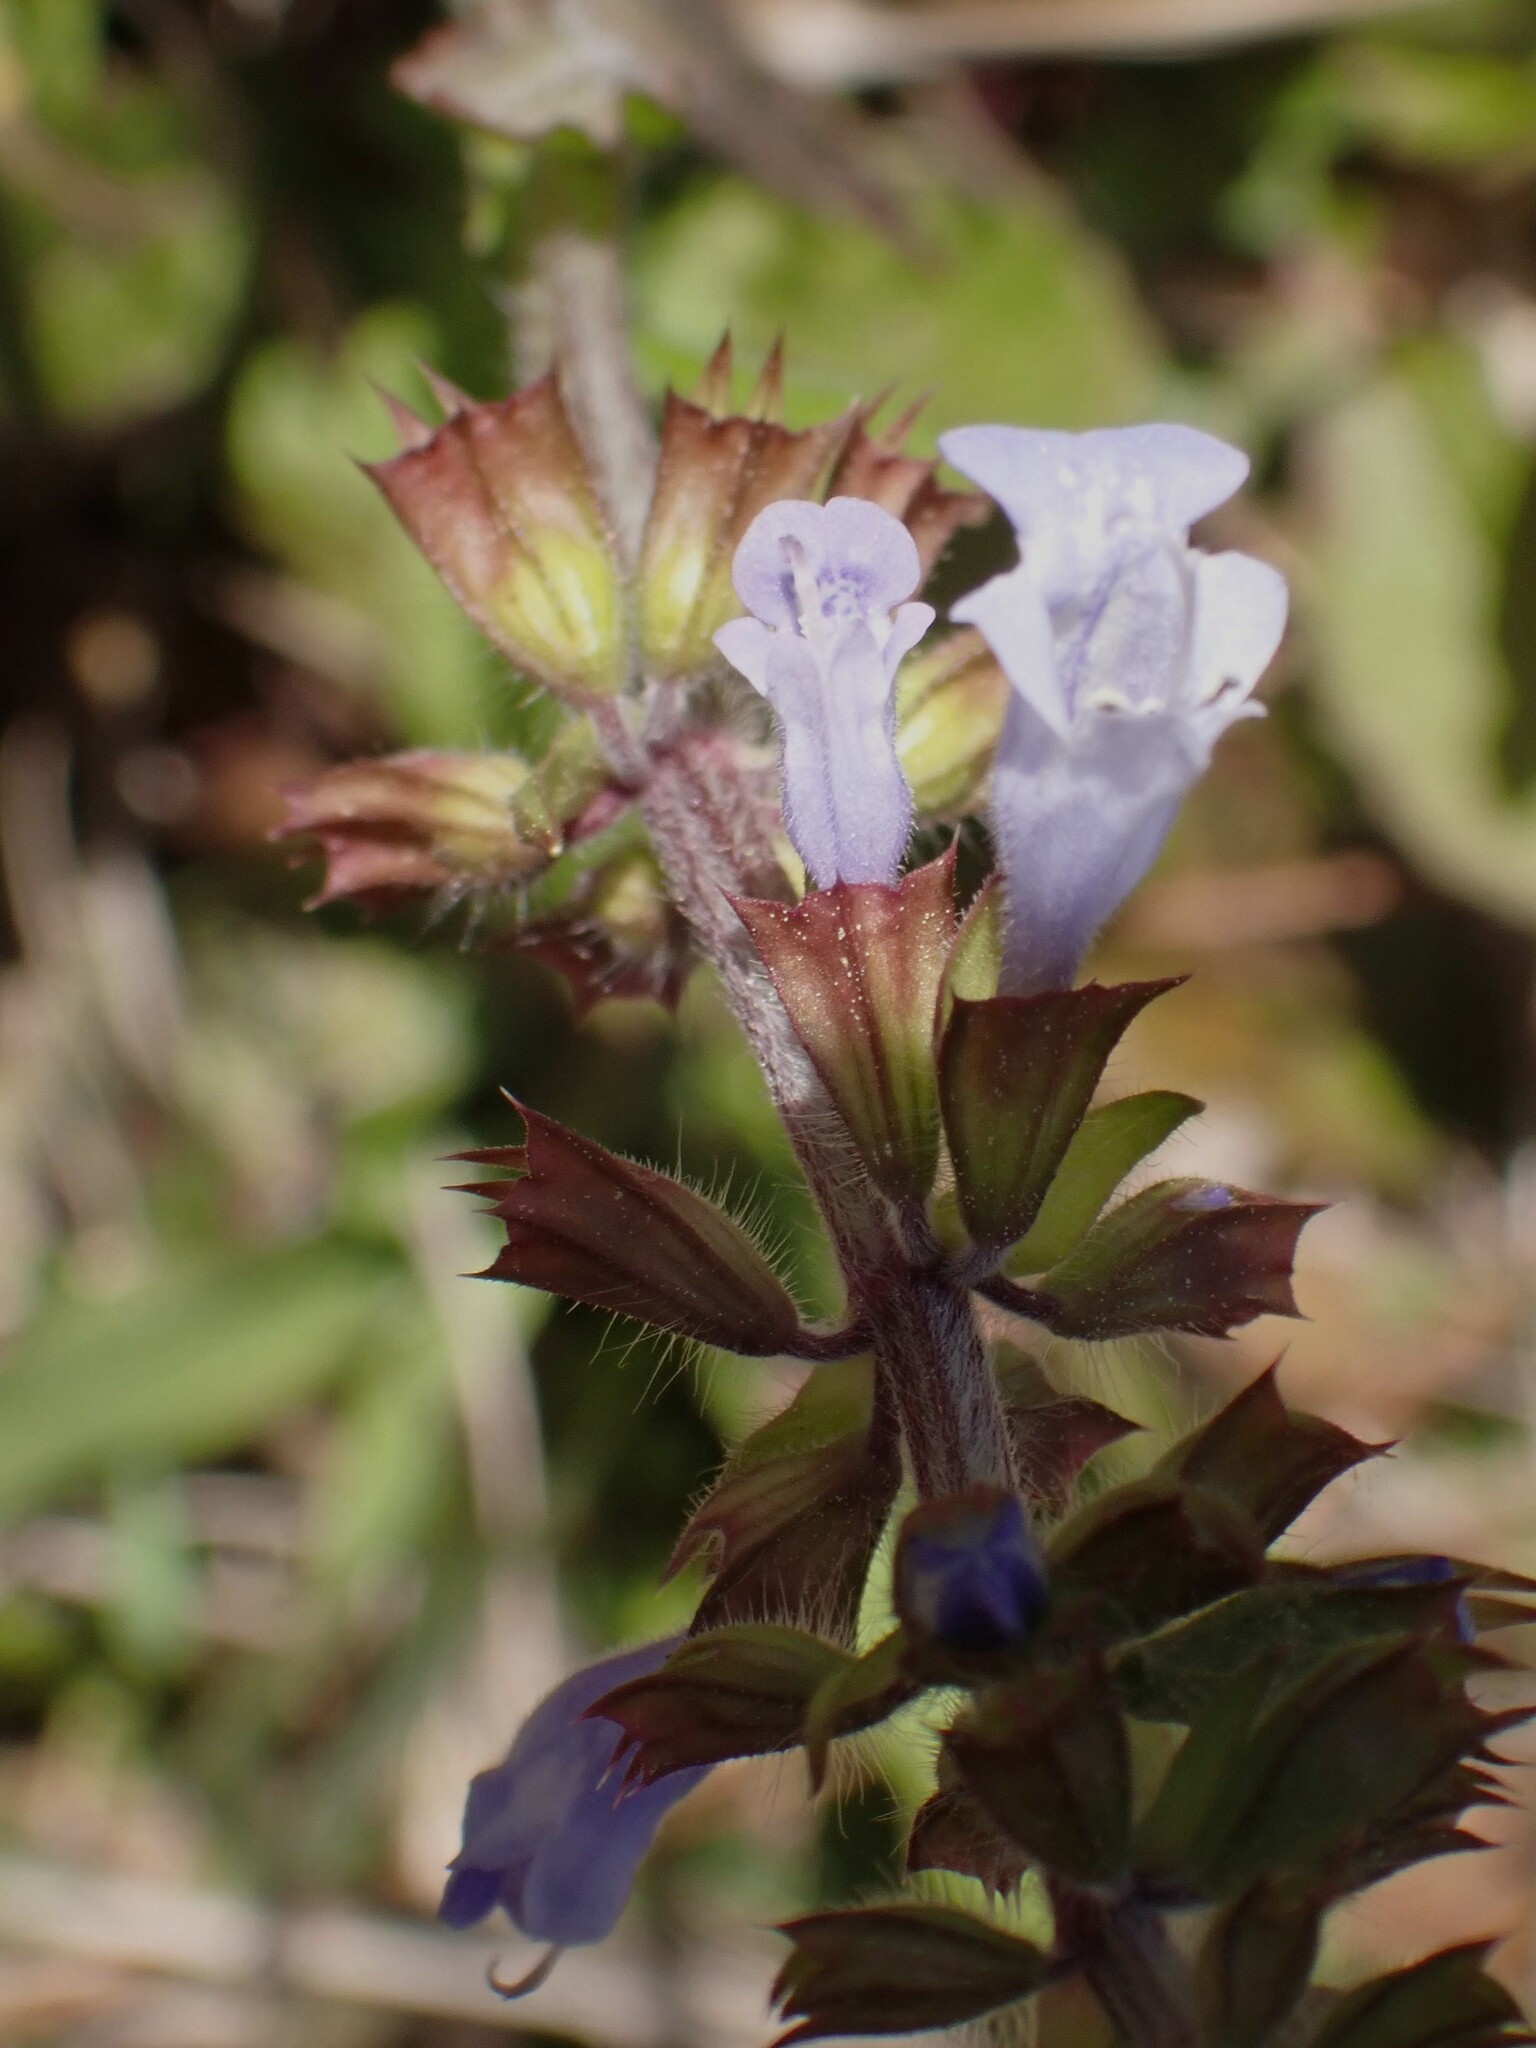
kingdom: Plantae
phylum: Tracheophyta
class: Magnoliopsida
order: Lamiales
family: Lamiaceae
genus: Salvia
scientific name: Salvia lyrata
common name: Cancerweed
